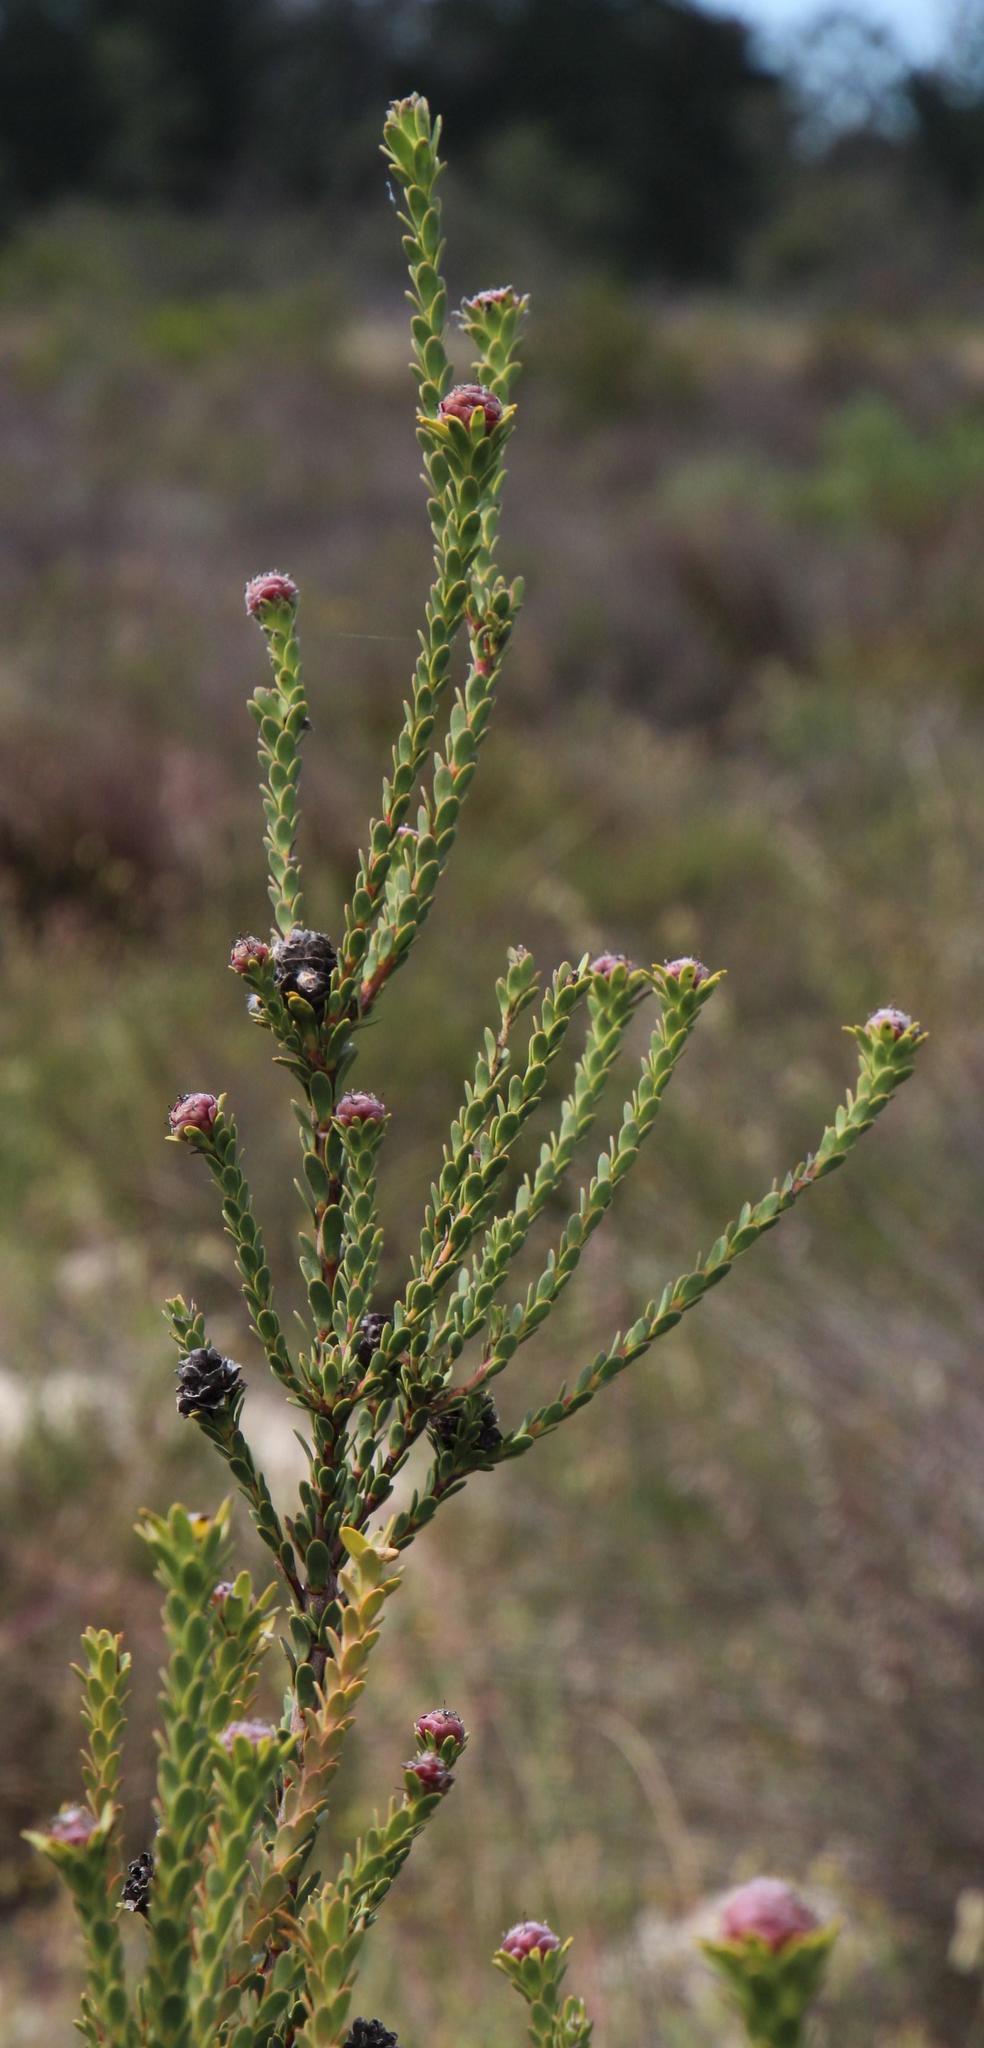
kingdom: Plantae
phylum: Tracheophyta
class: Magnoliopsida
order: Proteales
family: Proteaceae
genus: Leucadendron
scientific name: Leucadendron thymifolium
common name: Malmesbury conebush
